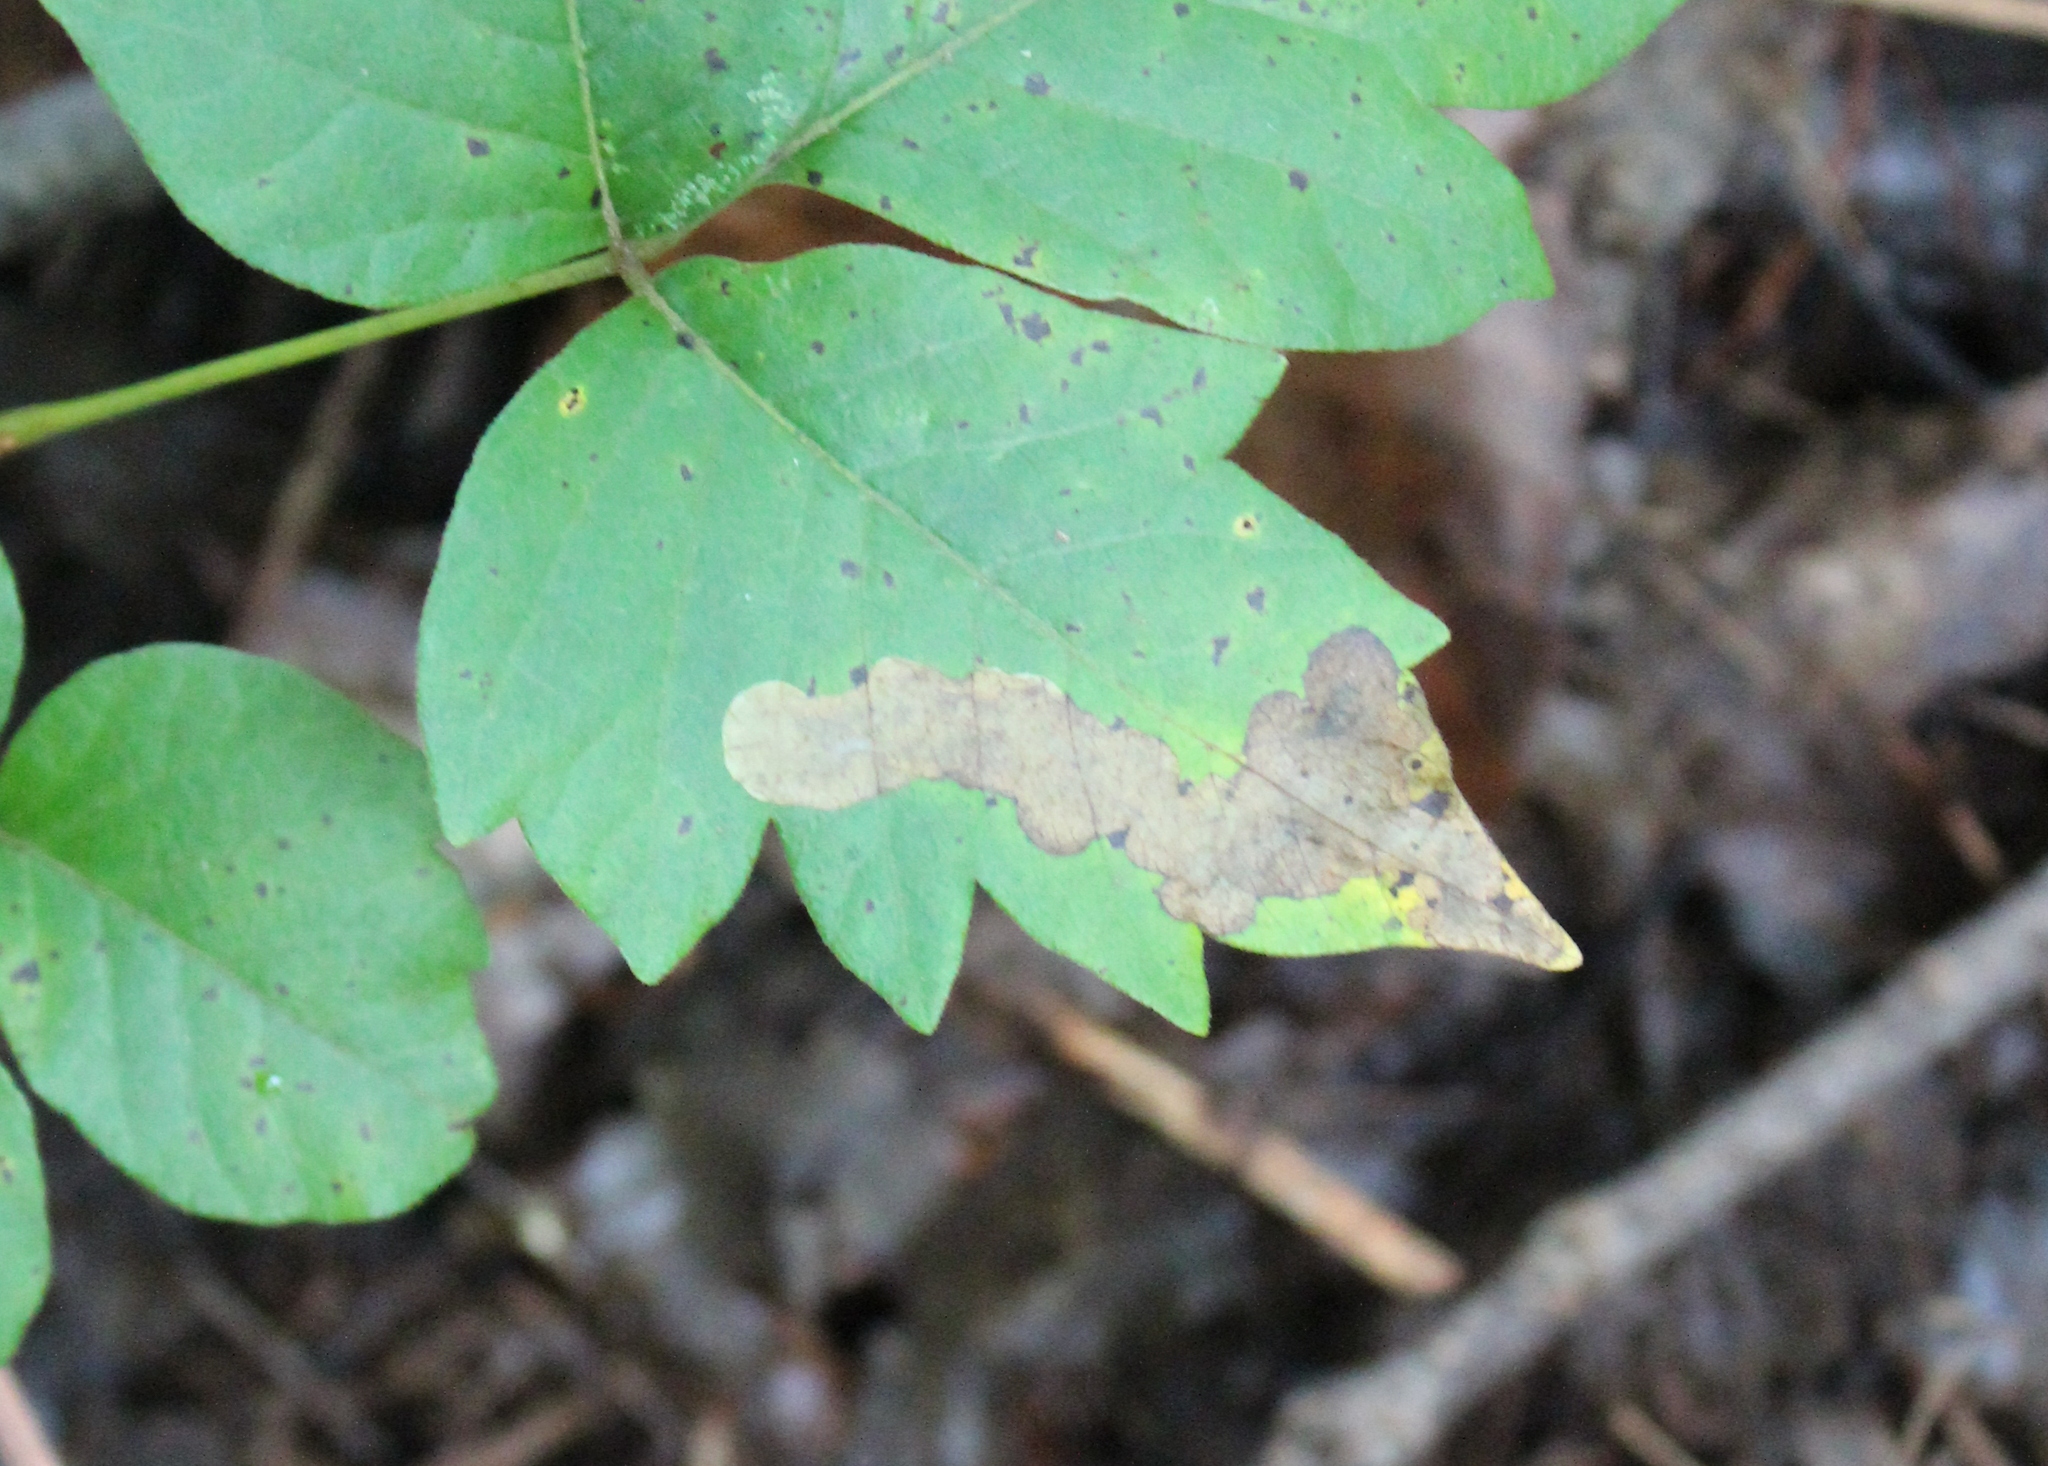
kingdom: Animalia
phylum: Arthropoda
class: Insecta
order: Lepidoptera
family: Gracillariidae
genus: Cameraria
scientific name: Cameraria guttifinitella
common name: Poison ivy leaf-miner moth
